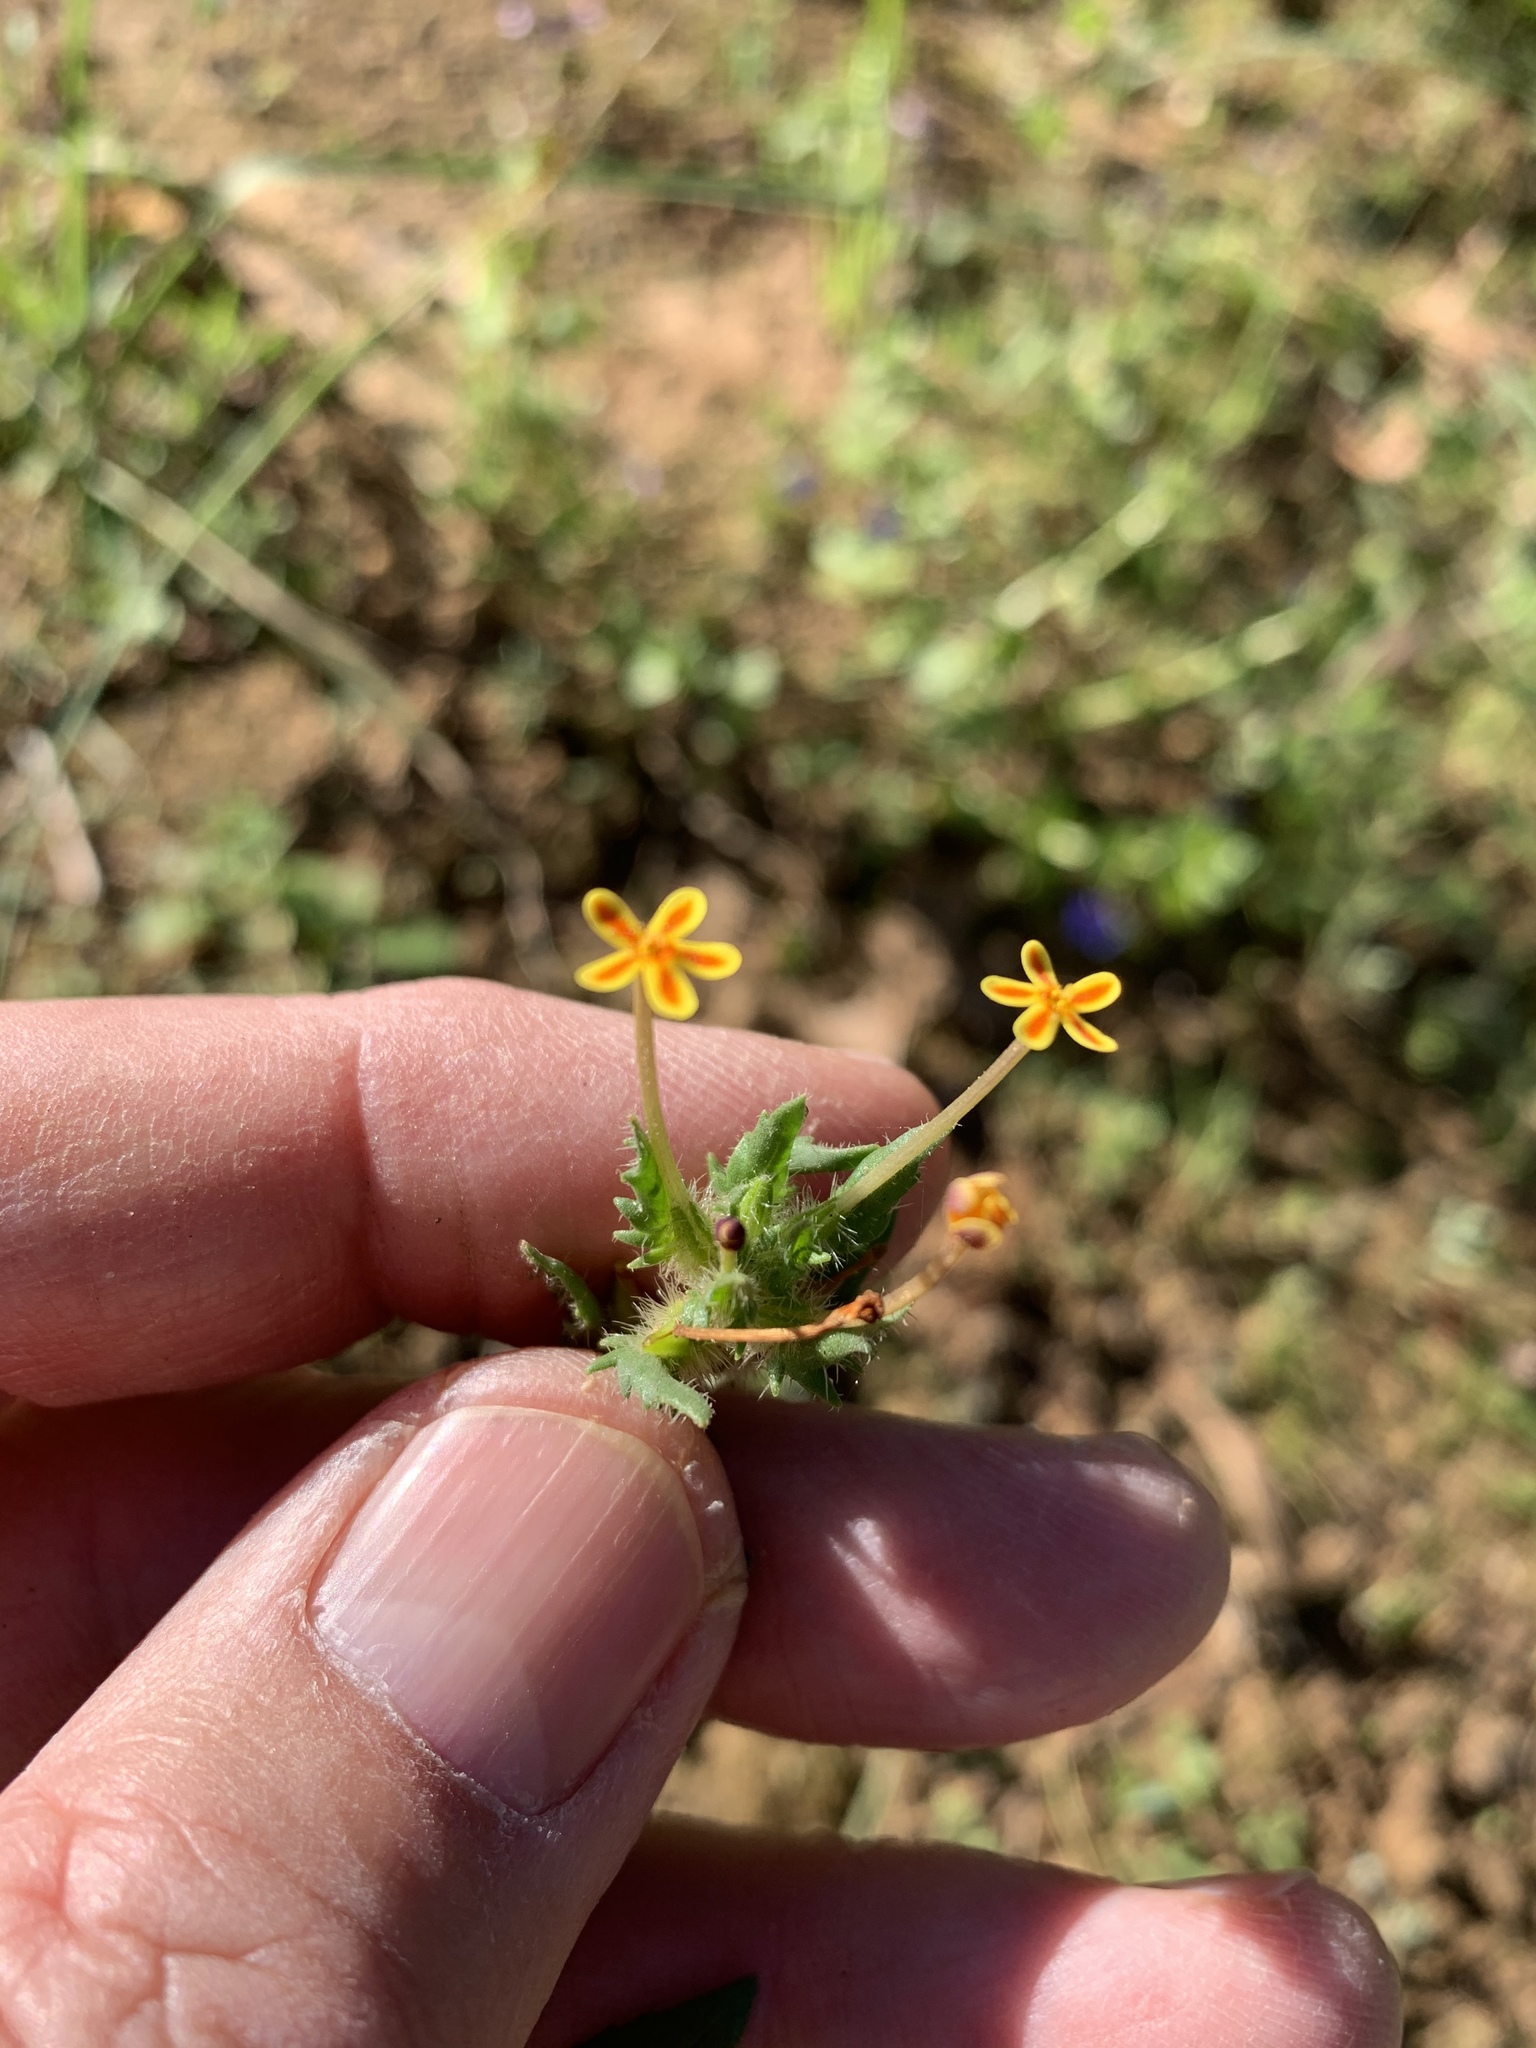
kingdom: Plantae
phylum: Tracheophyta
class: Magnoliopsida
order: Lamiales
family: Scrophulariaceae
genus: Zaluzianskya
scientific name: Zaluzianskya divaricata
